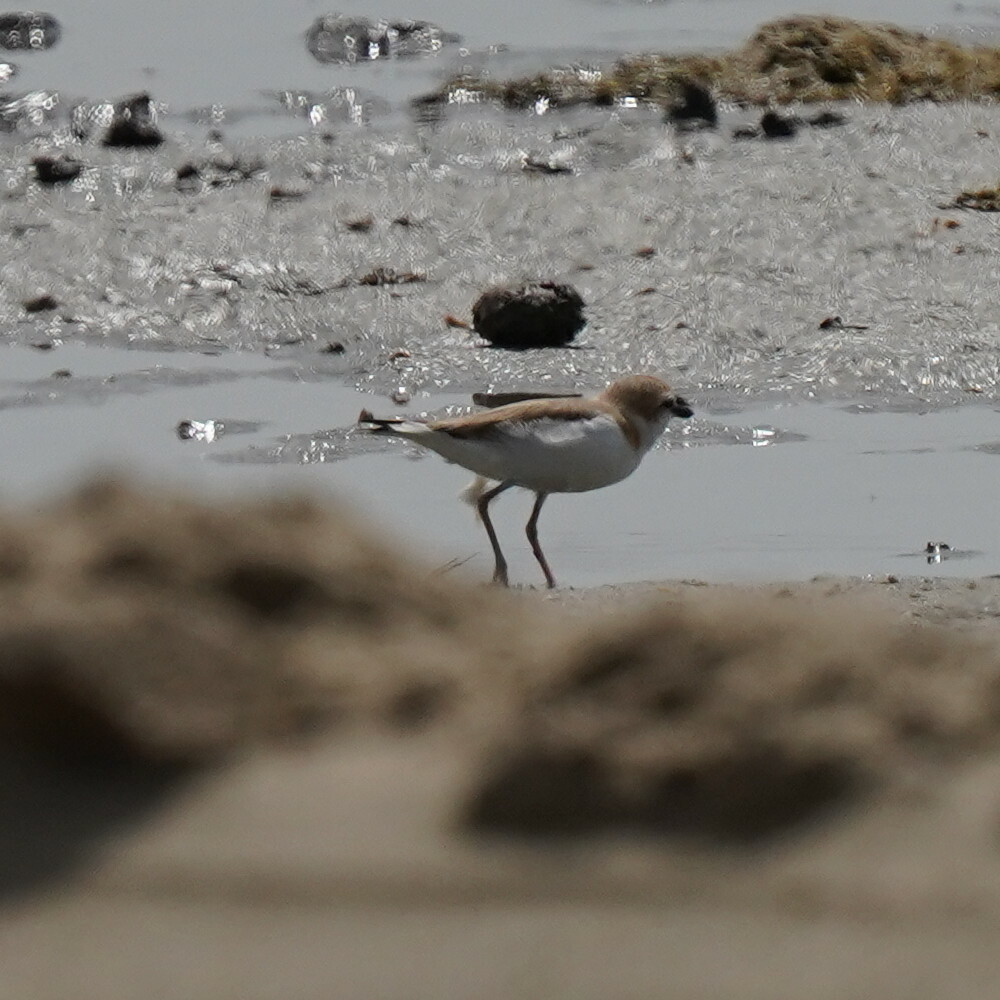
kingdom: Animalia
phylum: Chordata
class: Aves
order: Charadriiformes
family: Charadriidae
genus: Anarhynchus
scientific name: Anarhynchus
